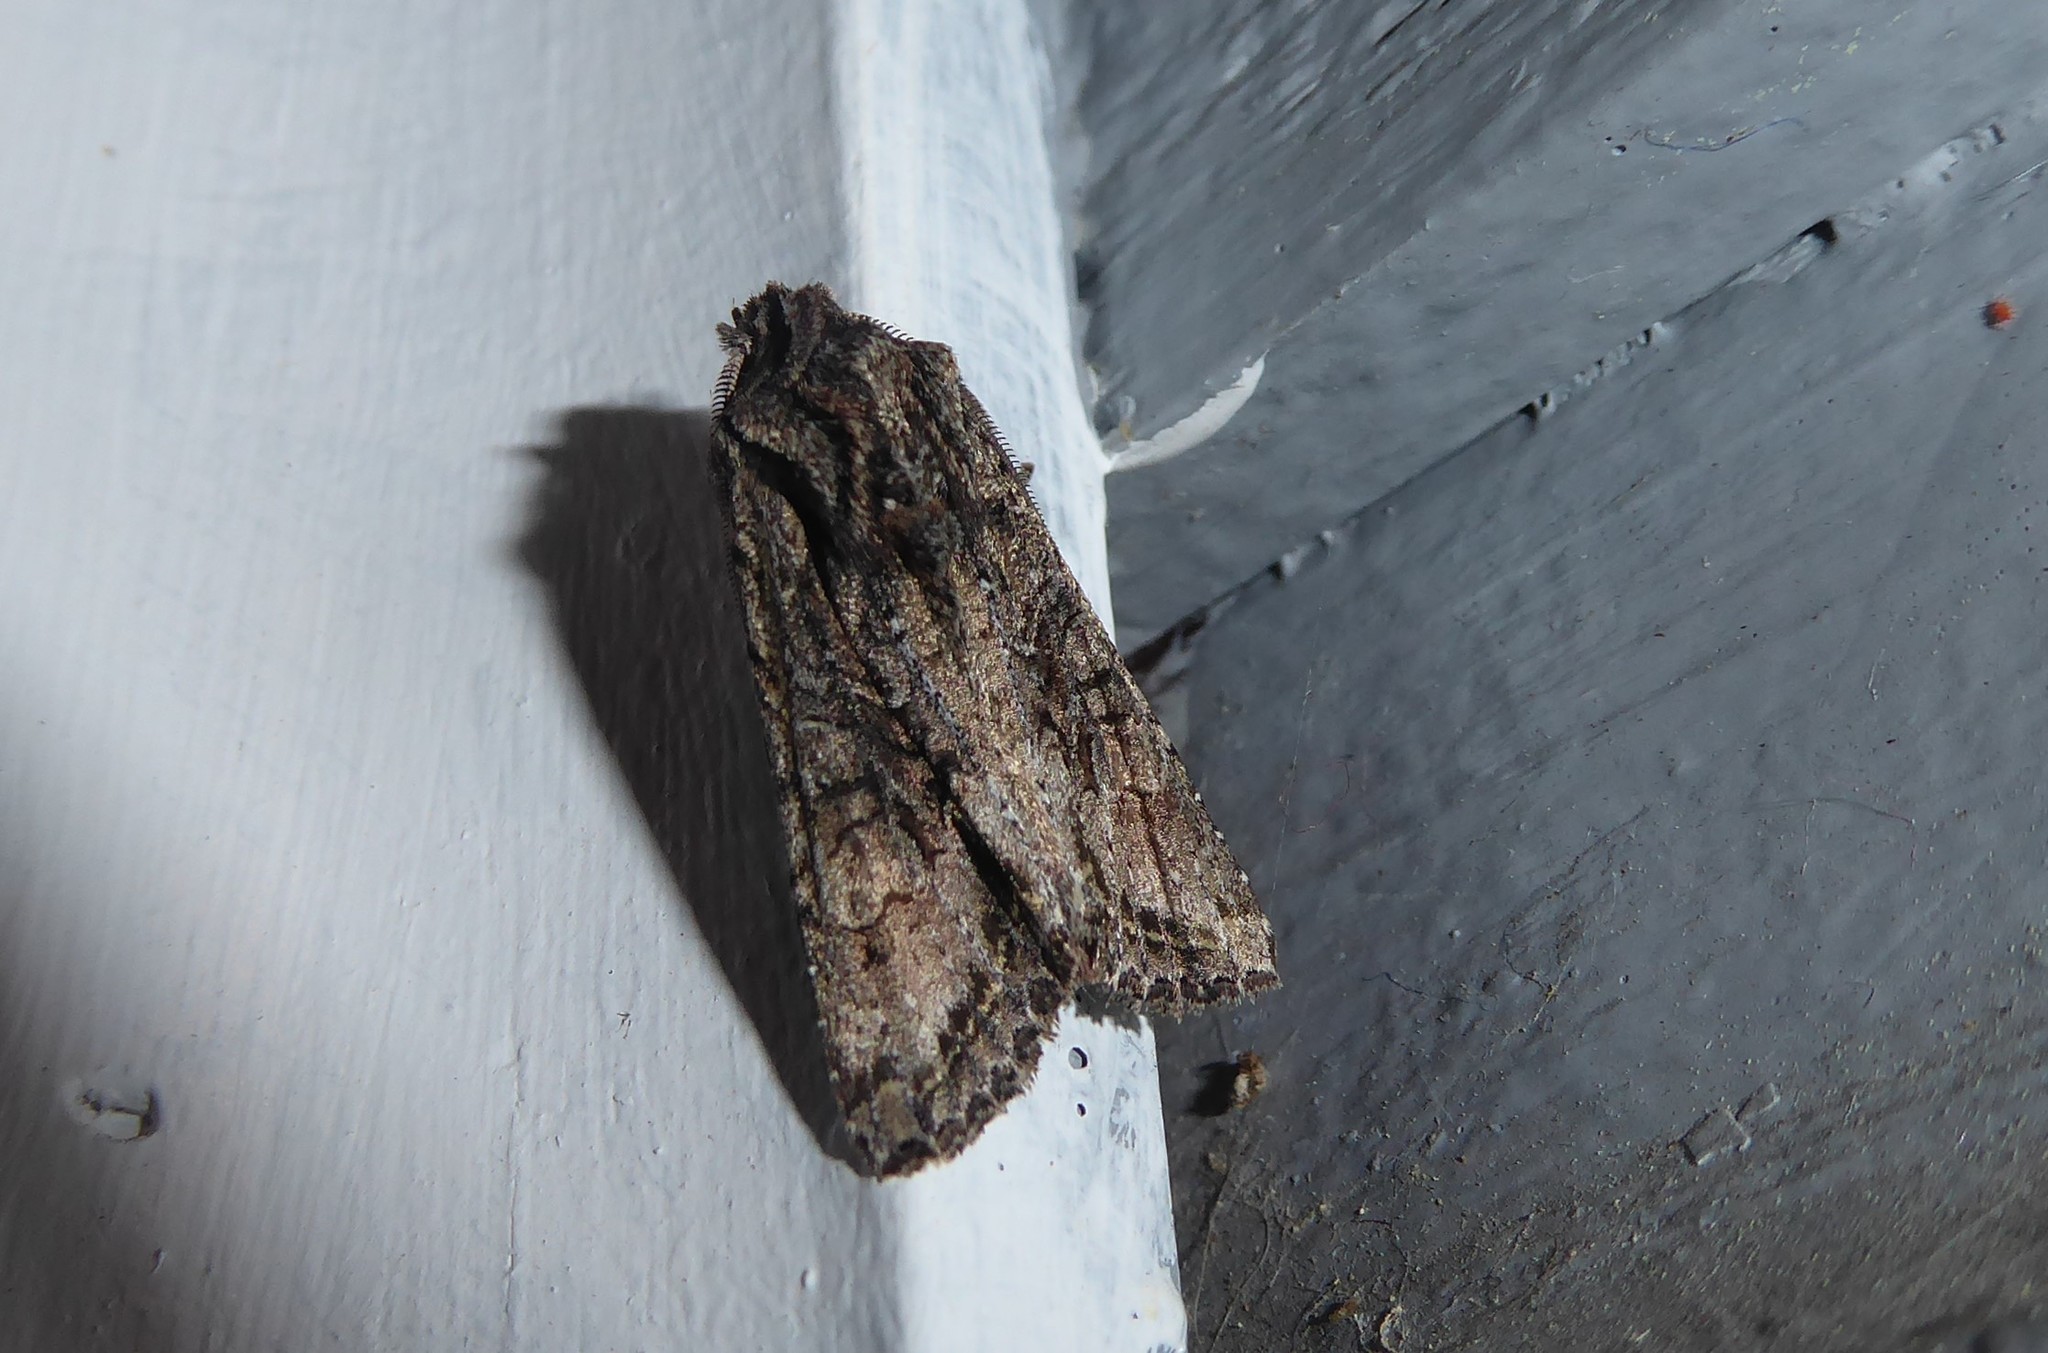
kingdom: Animalia
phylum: Arthropoda
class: Insecta
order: Lepidoptera
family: Noctuidae
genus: Ichneutica
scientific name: Ichneutica mutans
